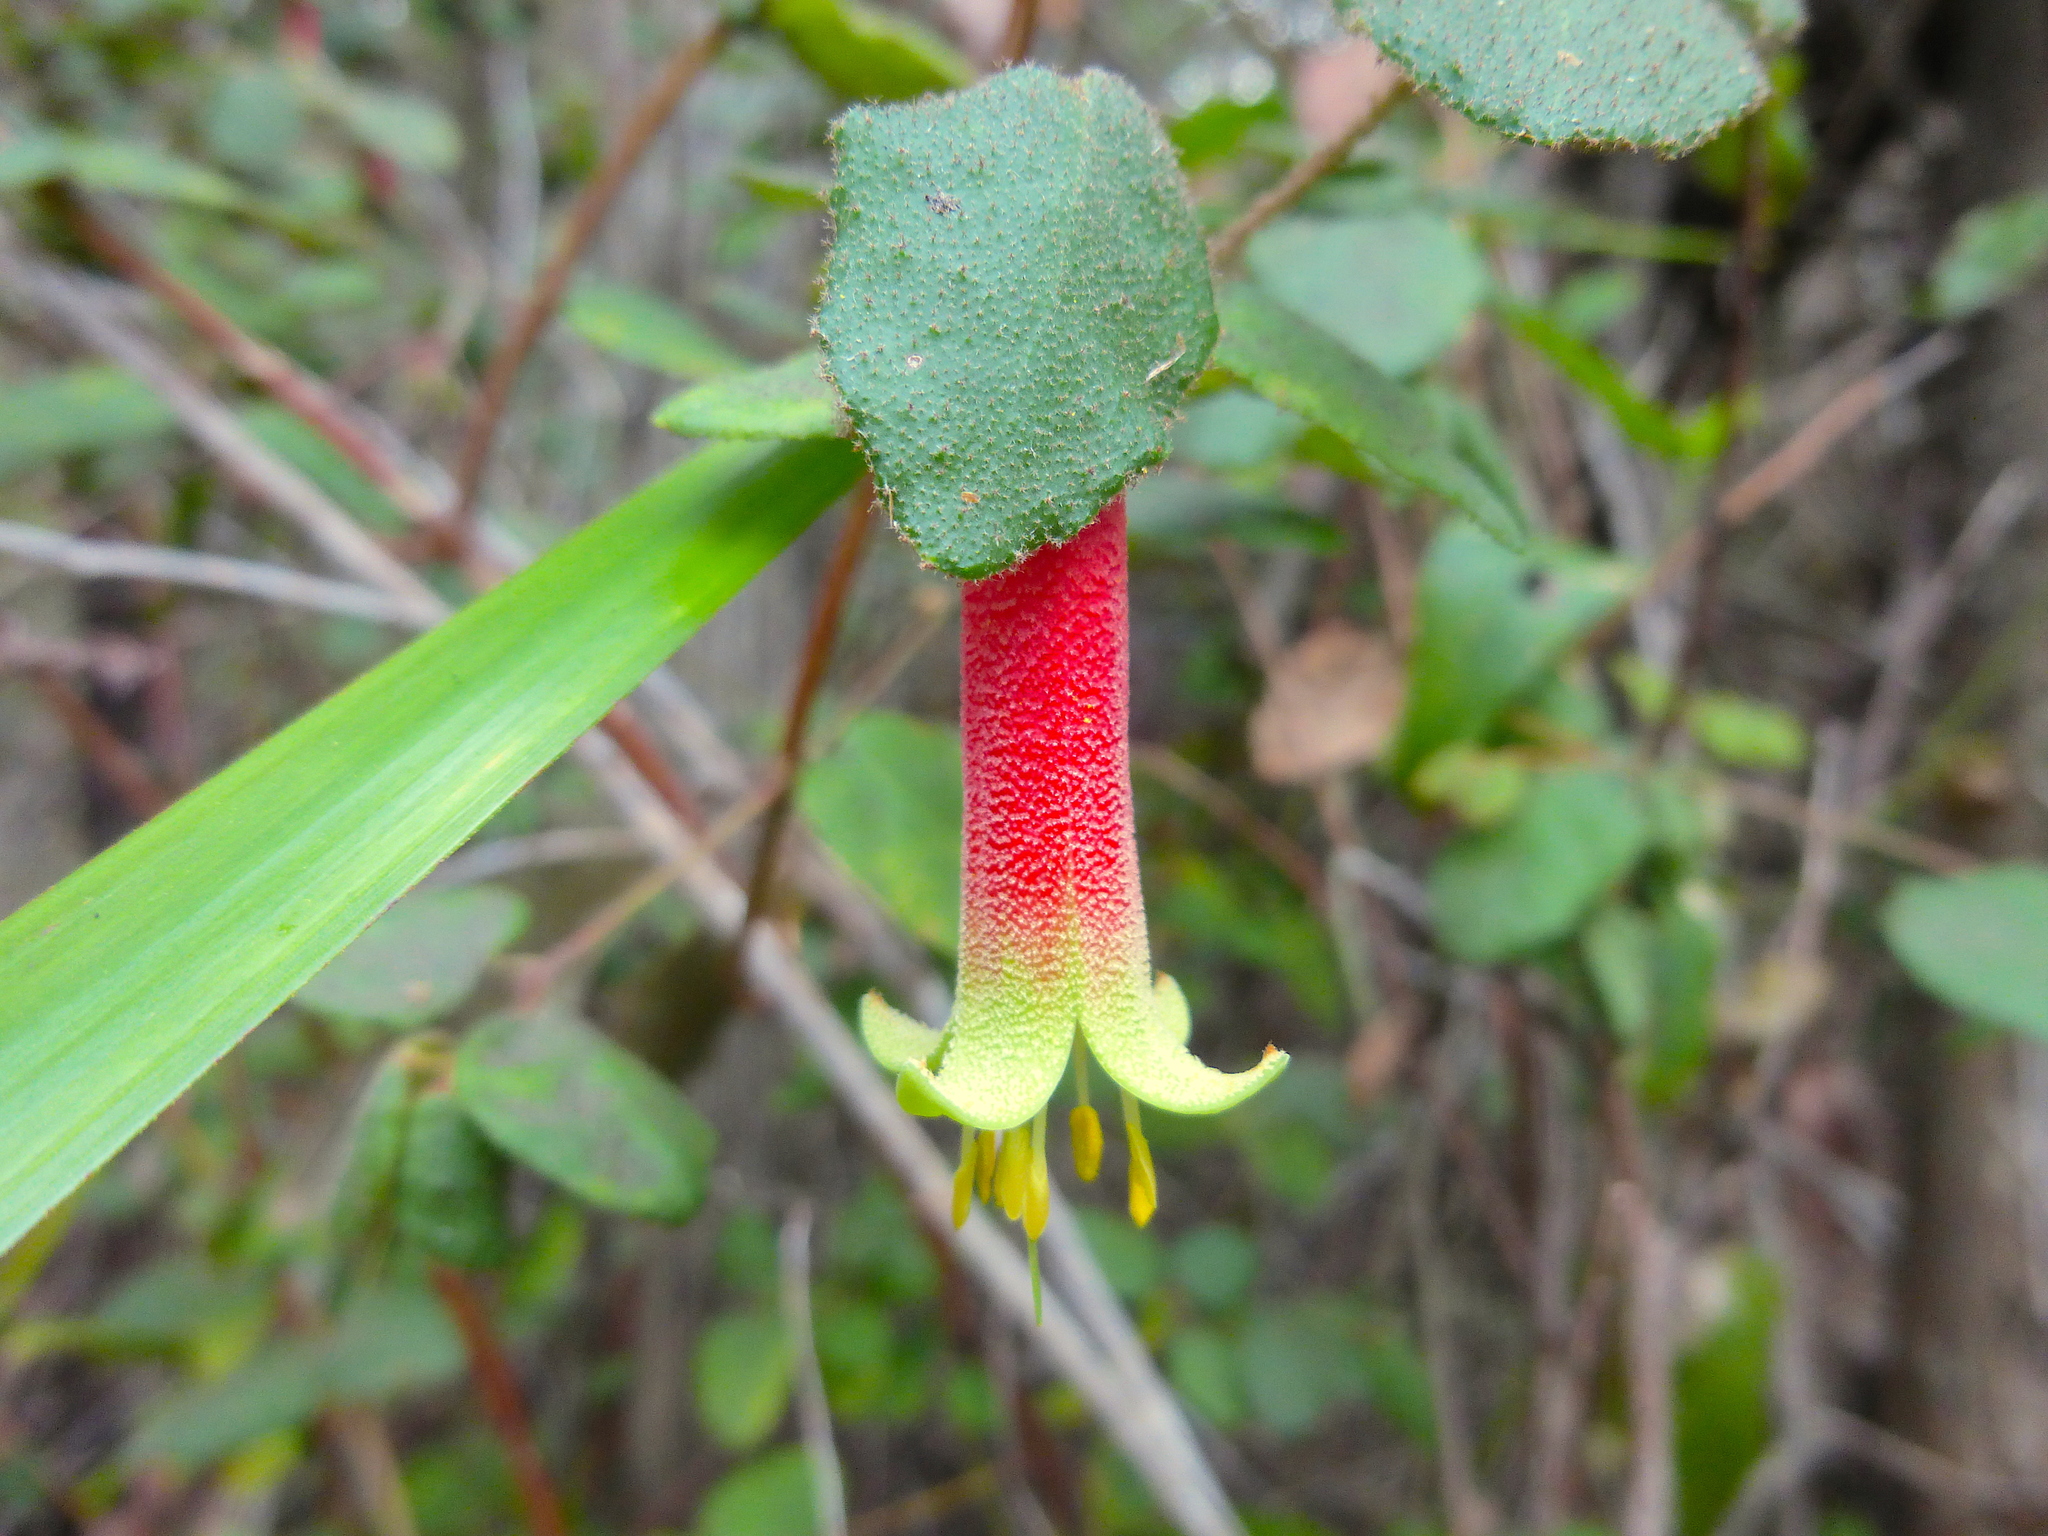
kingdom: Plantae
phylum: Tracheophyta
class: Magnoliopsida
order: Sapindales
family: Rutaceae
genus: Correa
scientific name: Correa reflexa
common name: Common correa
